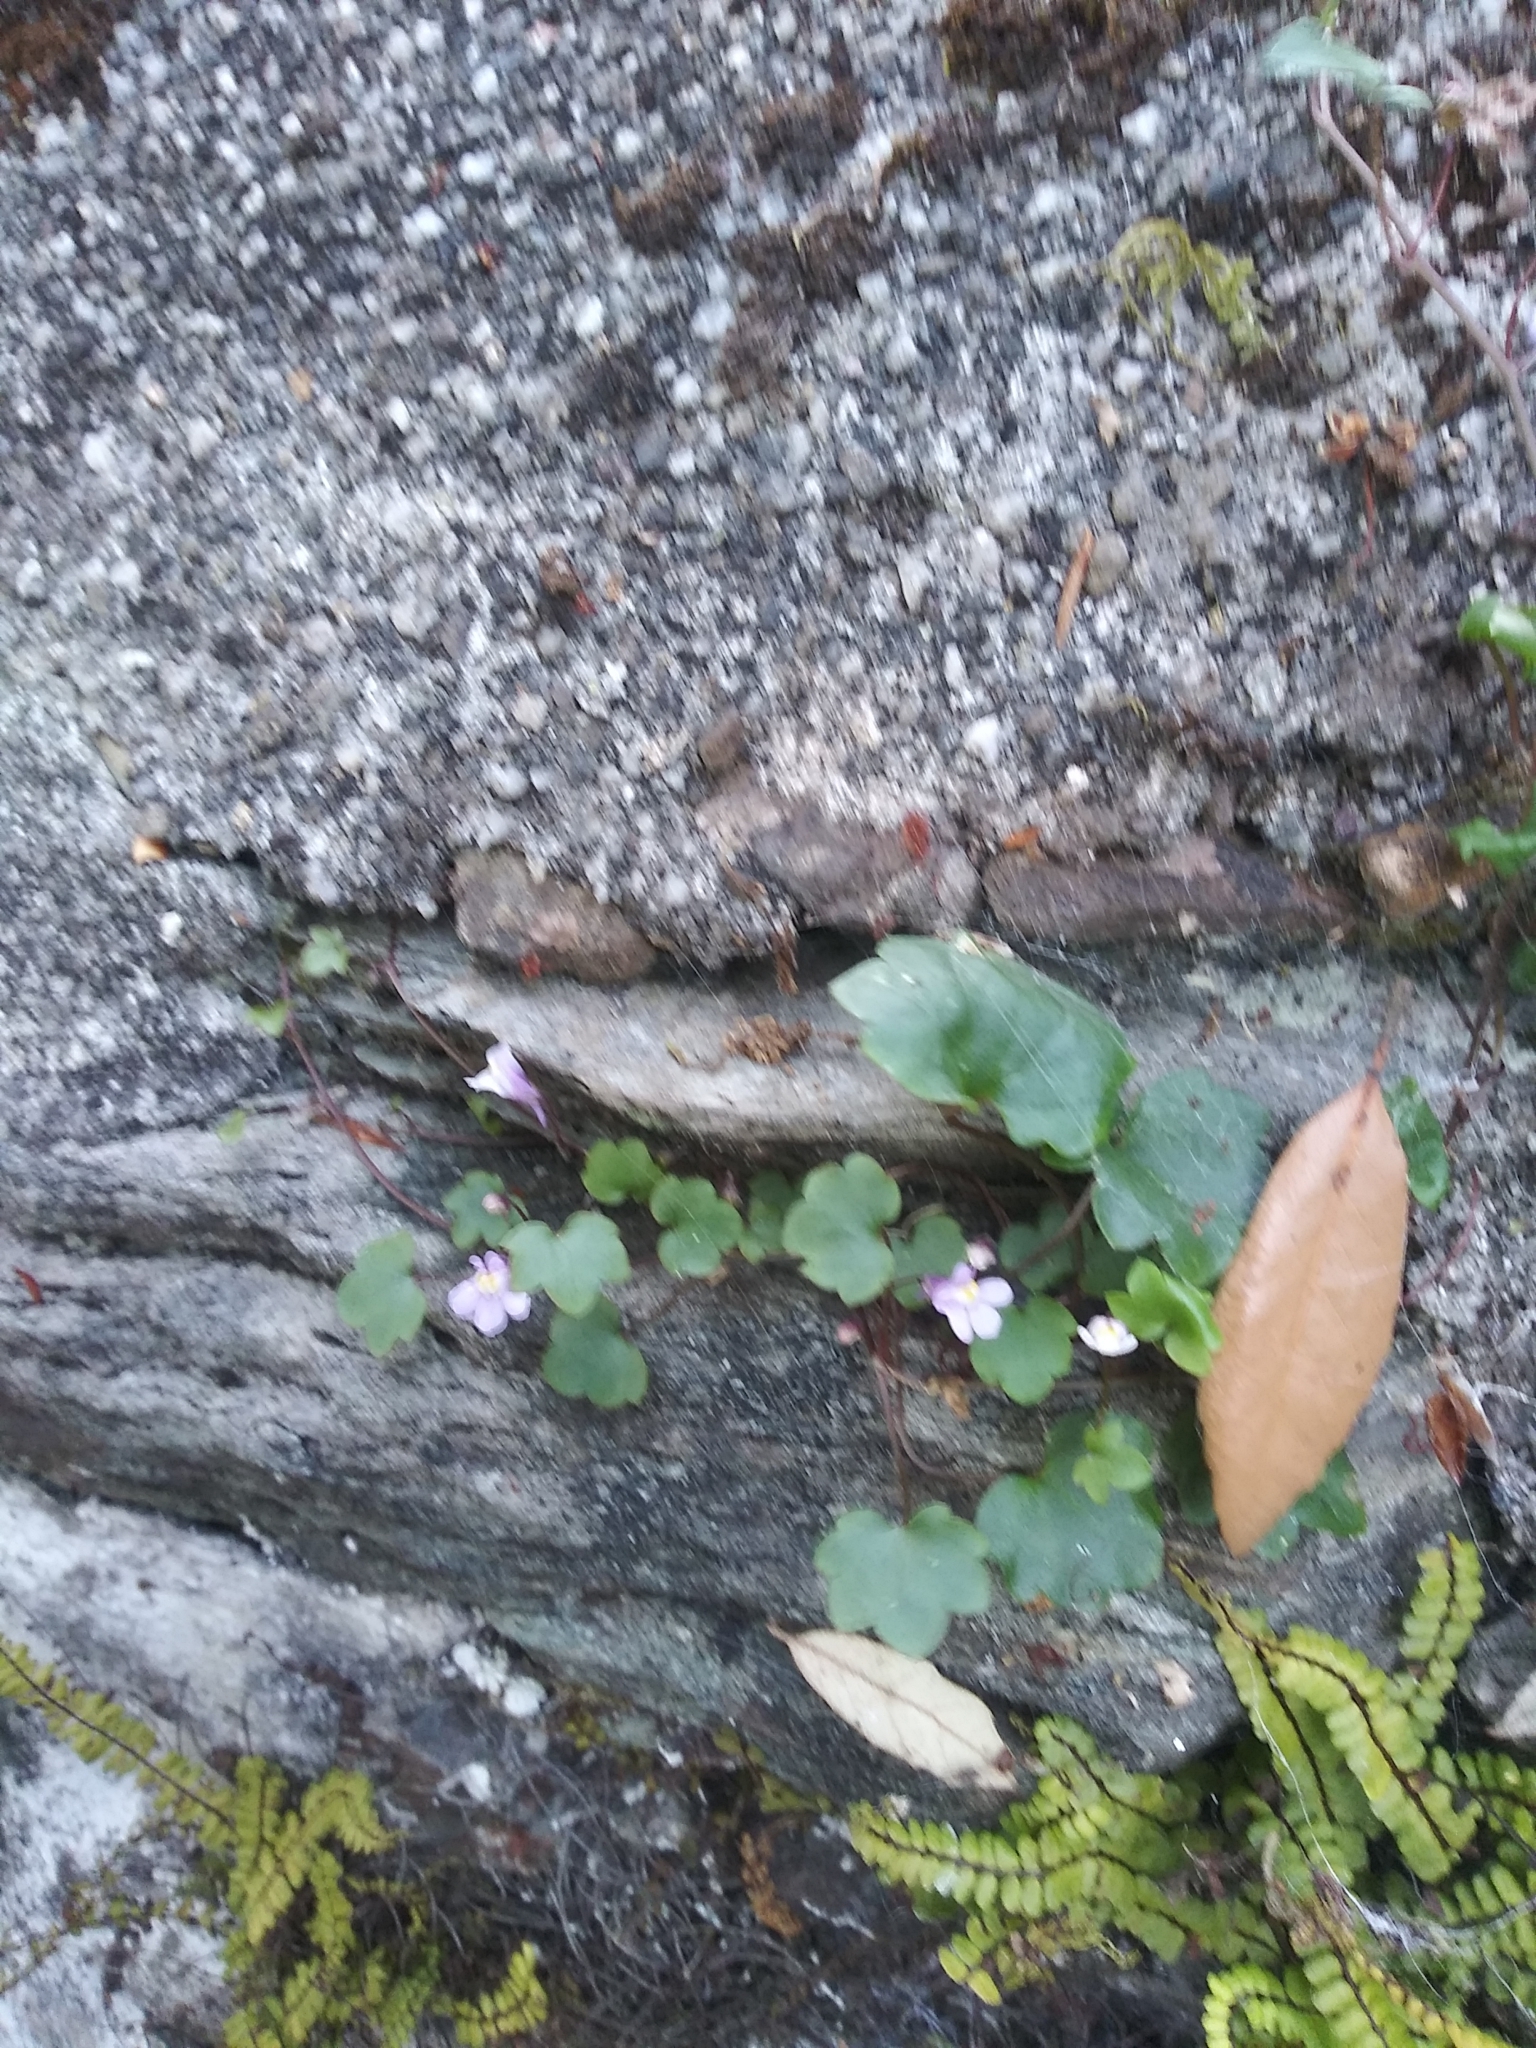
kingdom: Plantae
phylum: Tracheophyta
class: Magnoliopsida
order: Lamiales
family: Plantaginaceae
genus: Cymbalaria
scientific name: Cymbalaria muralis
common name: Ivy-leaved toadflax
